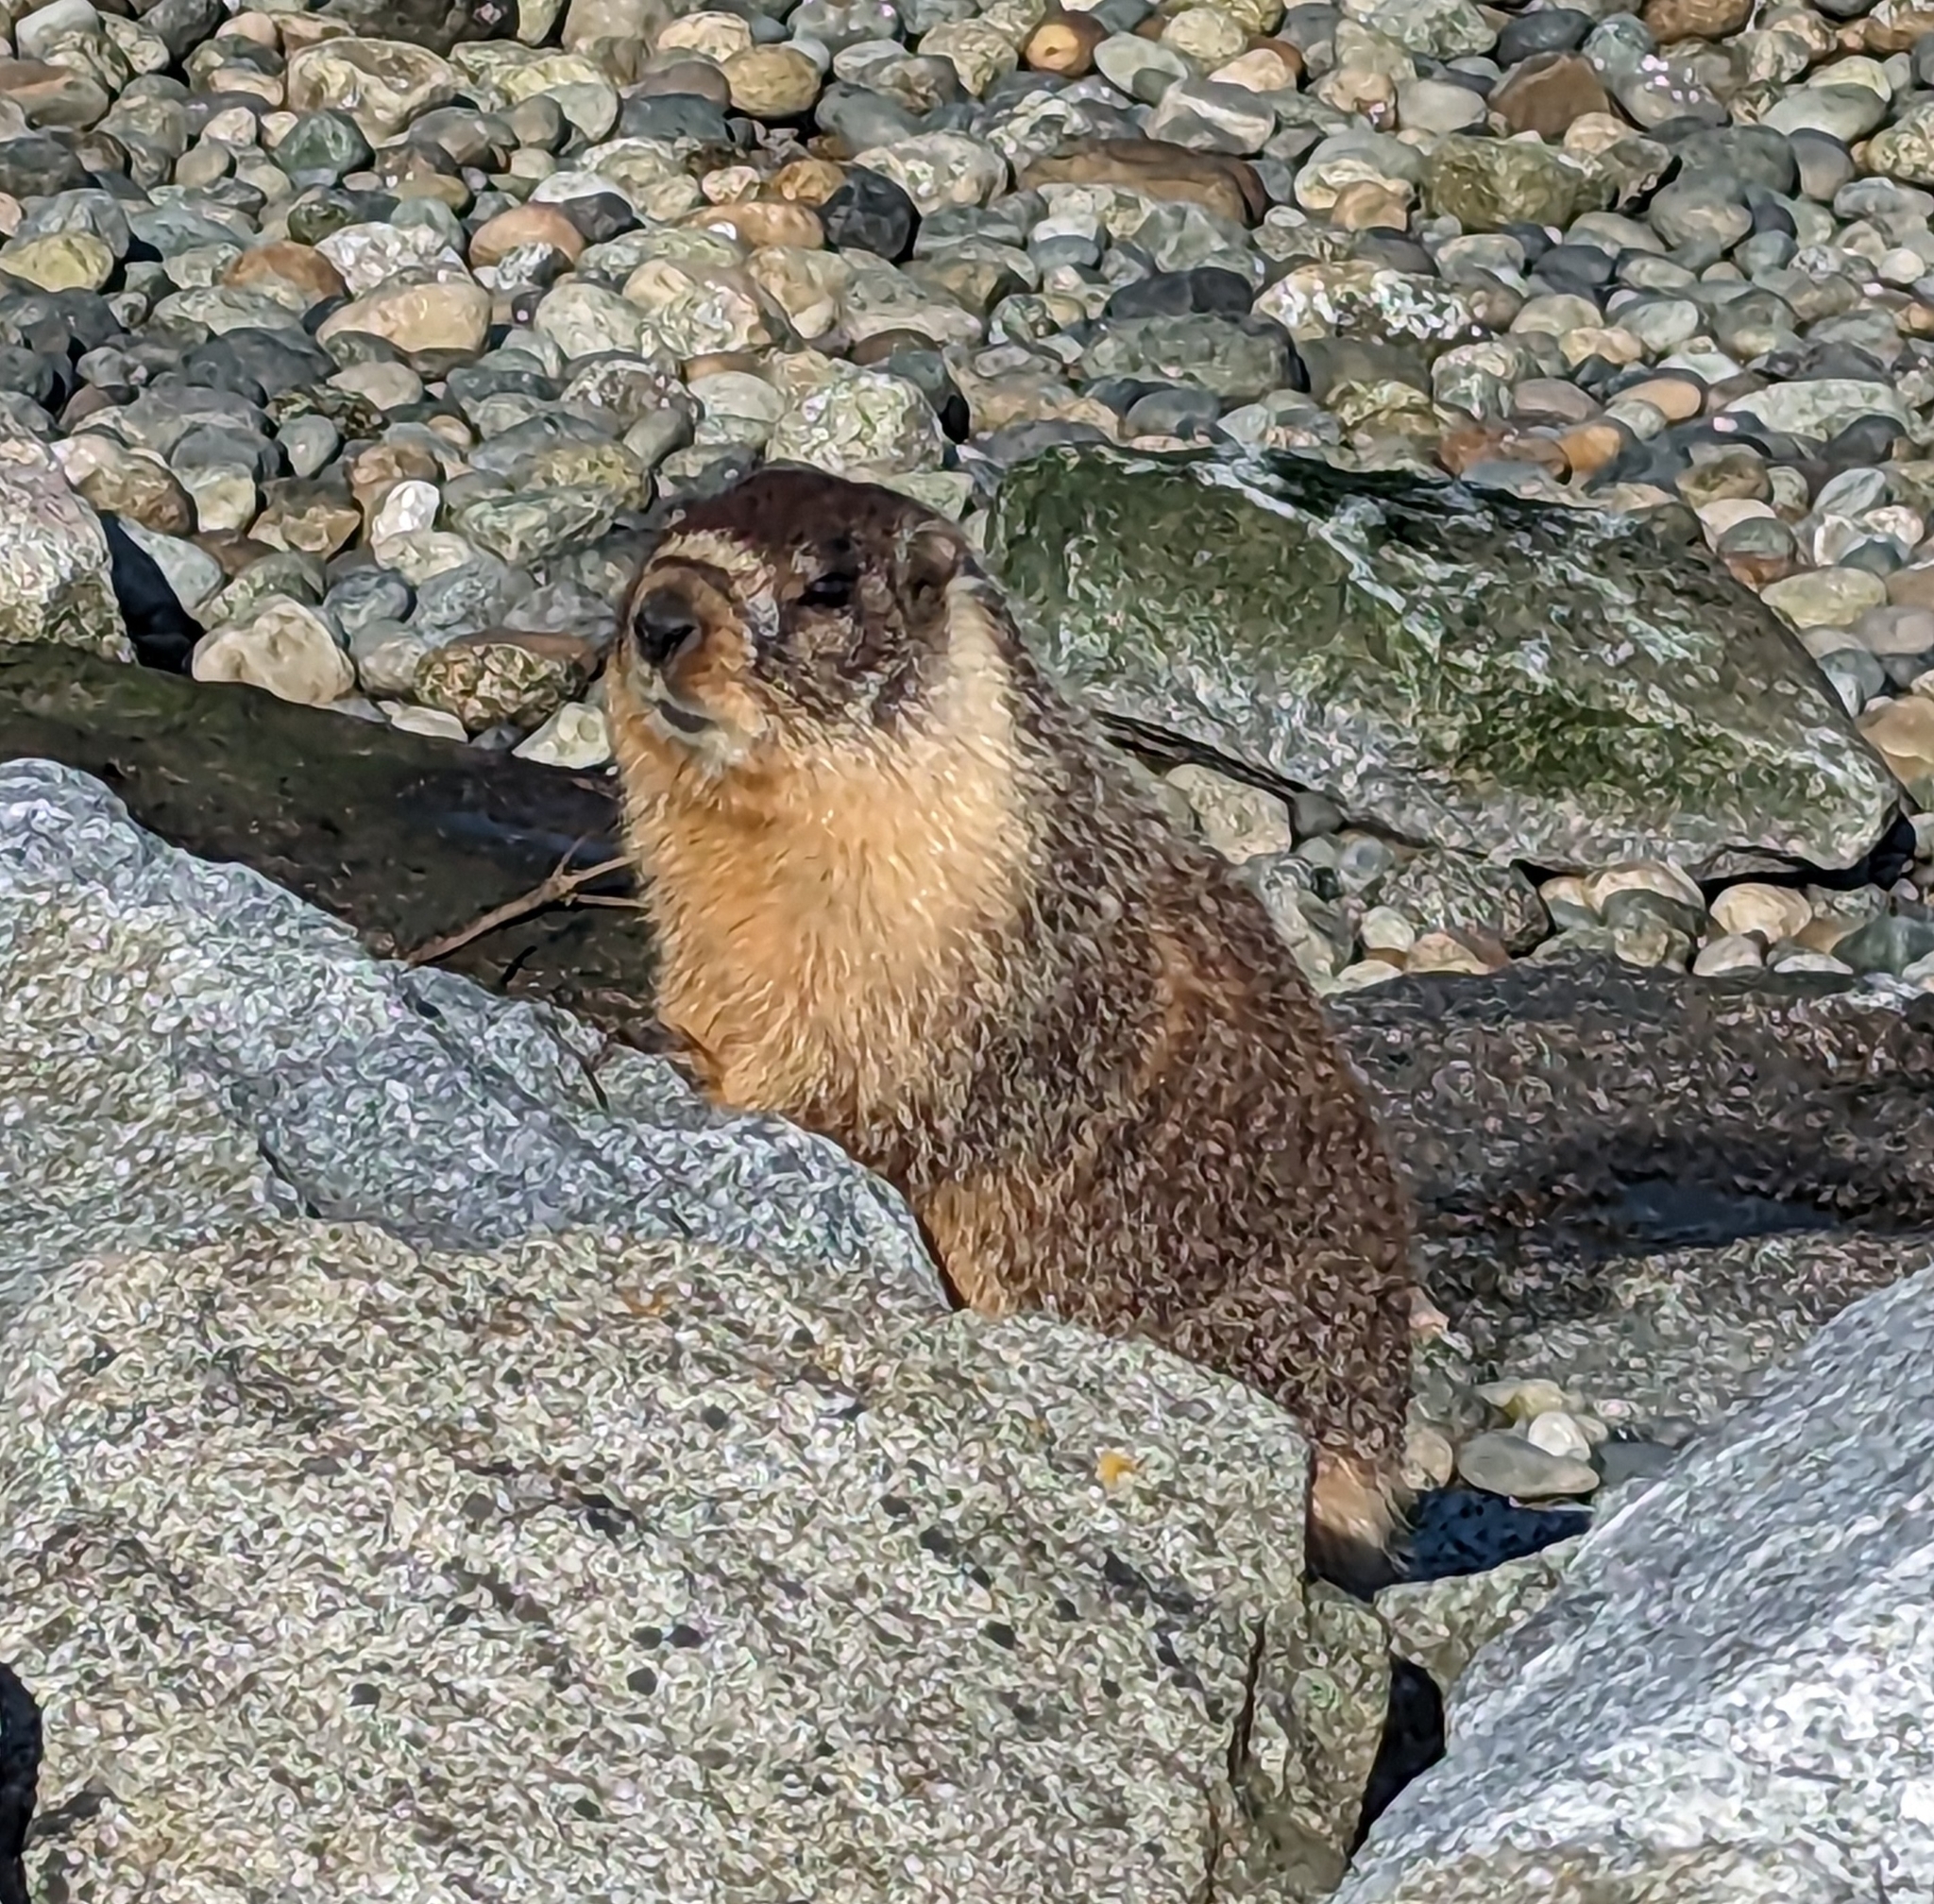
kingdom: Animalia
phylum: Chordata
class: Mammalia
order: Rodentia
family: Sciuridae
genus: Marmota
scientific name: Marmota flaviventris
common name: Yellow-bellied marmot
